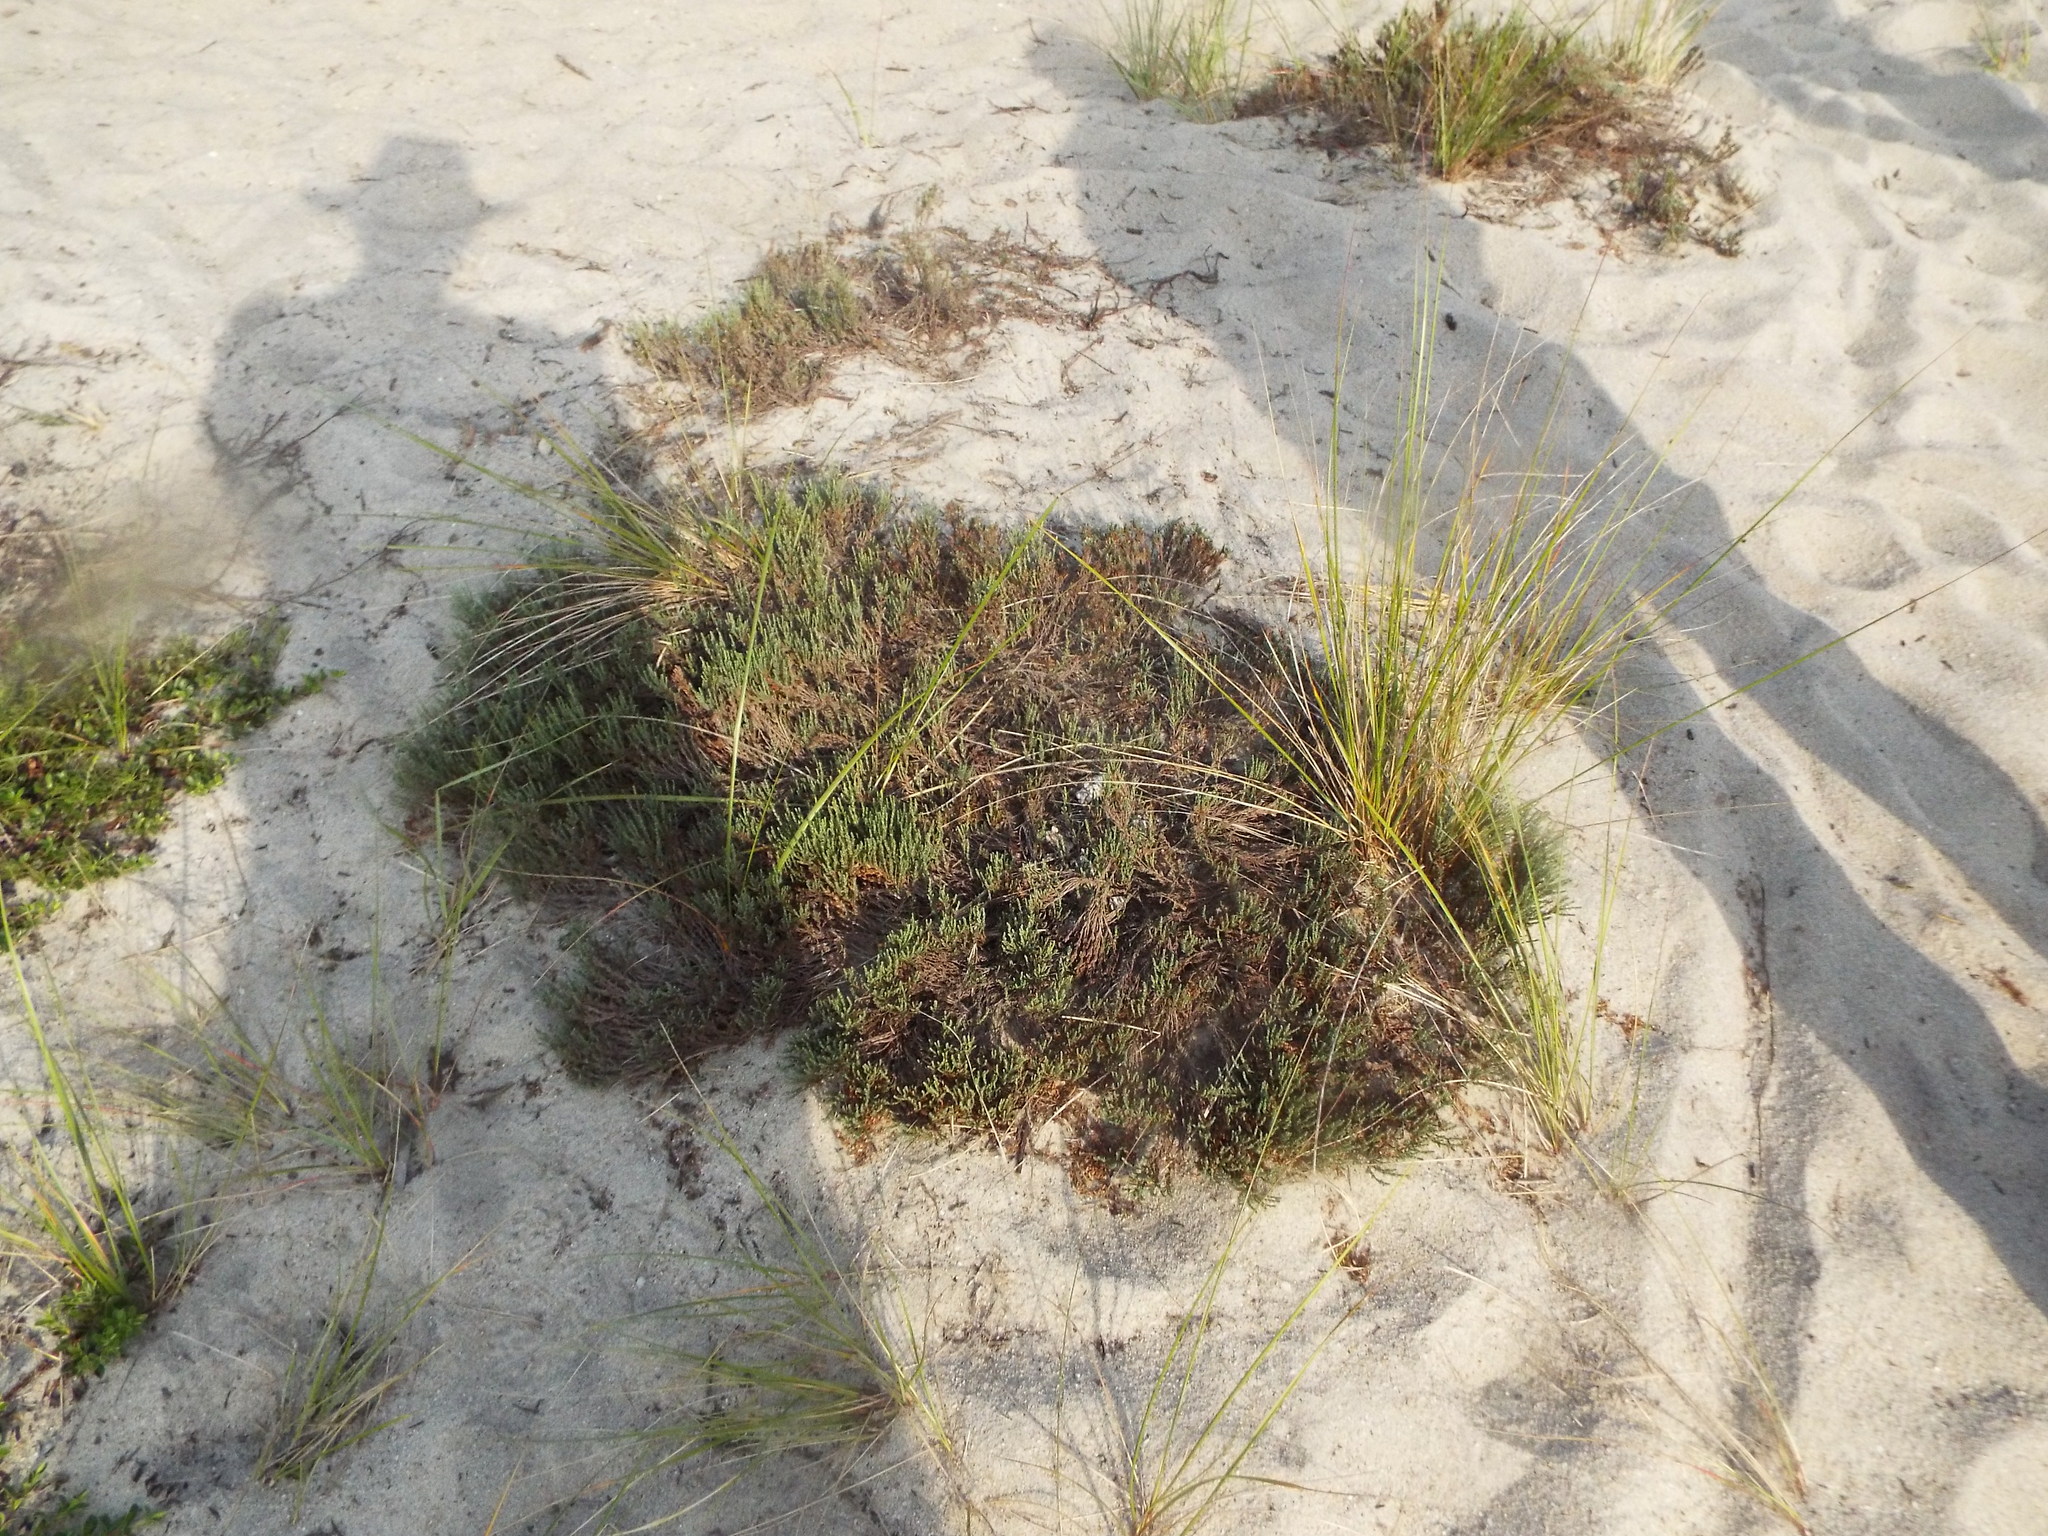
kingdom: Plantae
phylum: Tracheophyta
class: Magnoliopsida
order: Malvales
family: Cistaceae
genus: Hudsonia
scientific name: Hudsonia tomentosa
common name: Beach-heath
